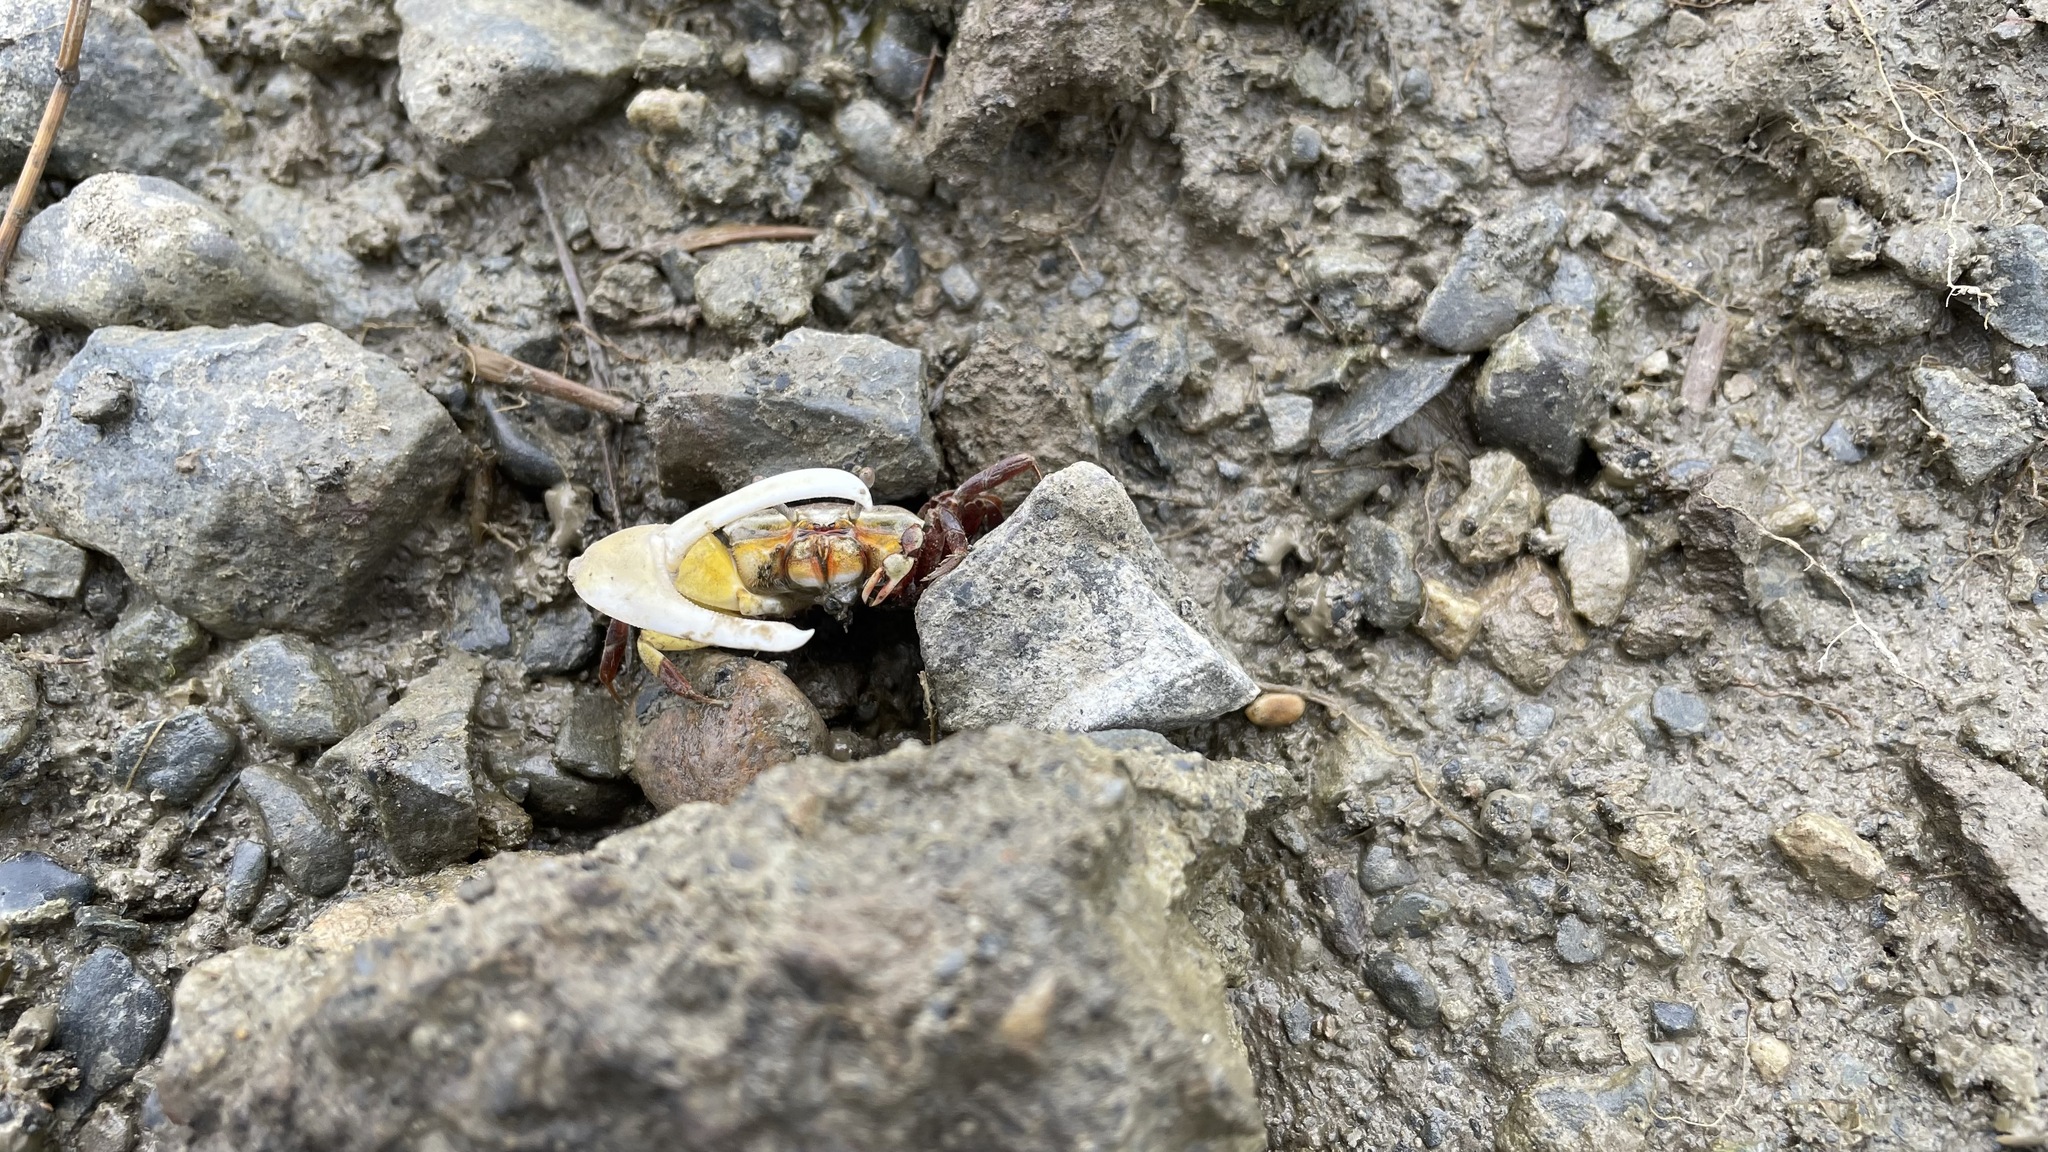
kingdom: Animalia
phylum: Arthropoda
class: Malacostraca
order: Decapoda
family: Ocypodidae
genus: Austruca
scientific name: Austruca lactea
